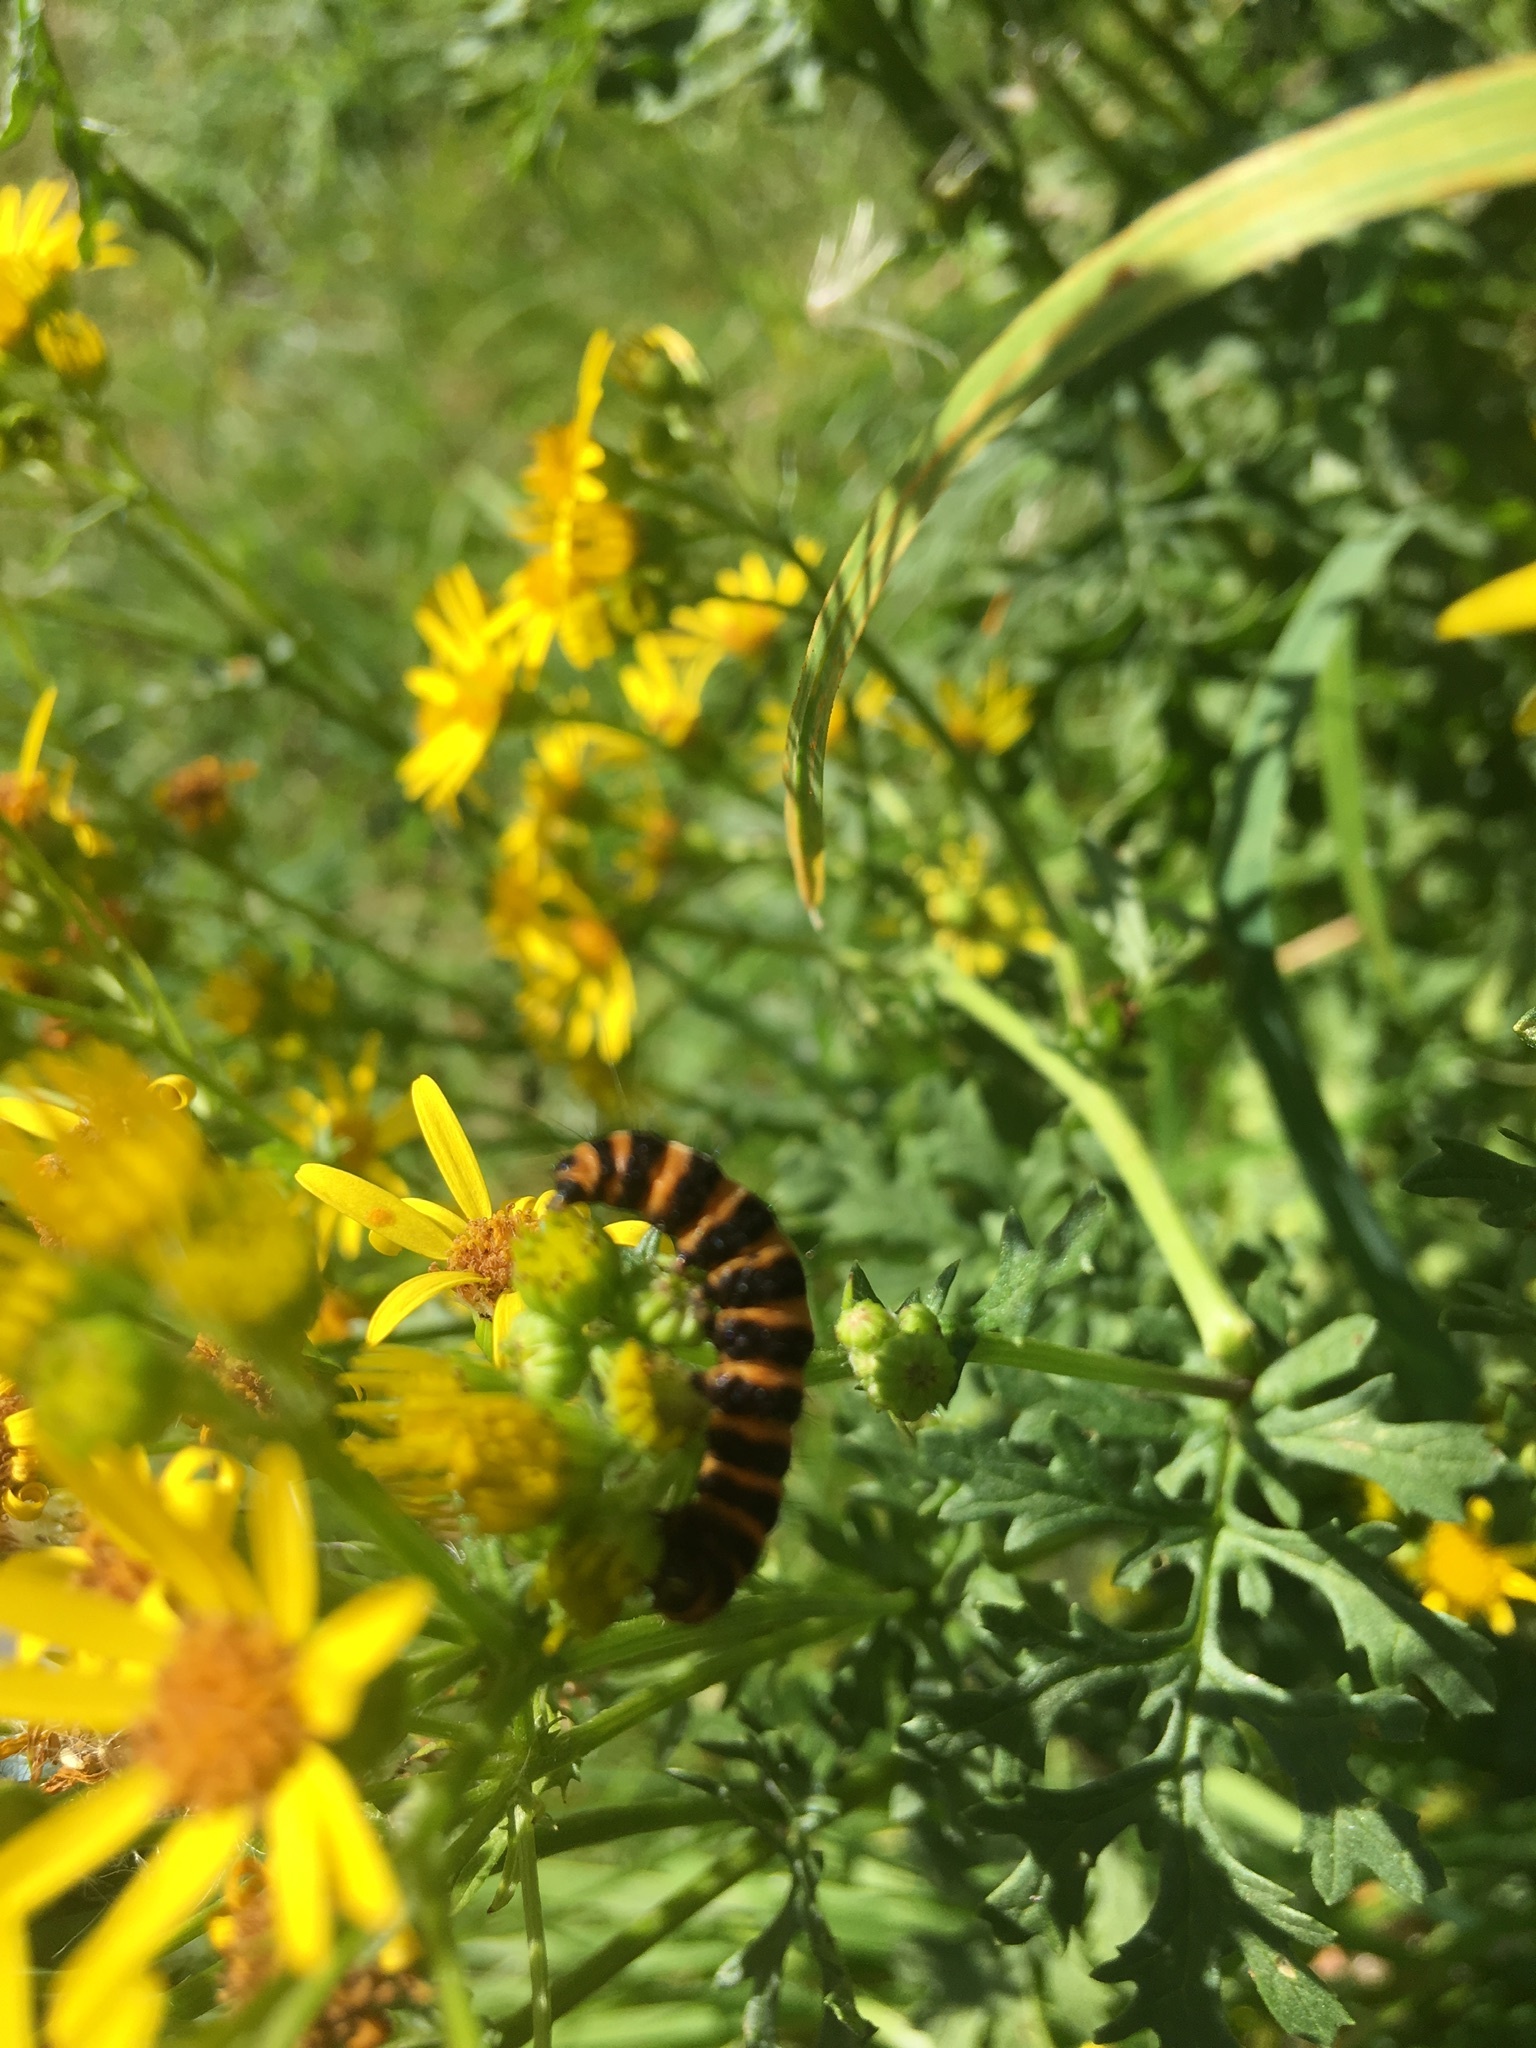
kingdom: Animalia
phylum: Arthropoda
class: Insecta
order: Lepidoptera
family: Erebidae
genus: Tyria
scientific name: Tyria jacobaeae
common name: Cinnabar
